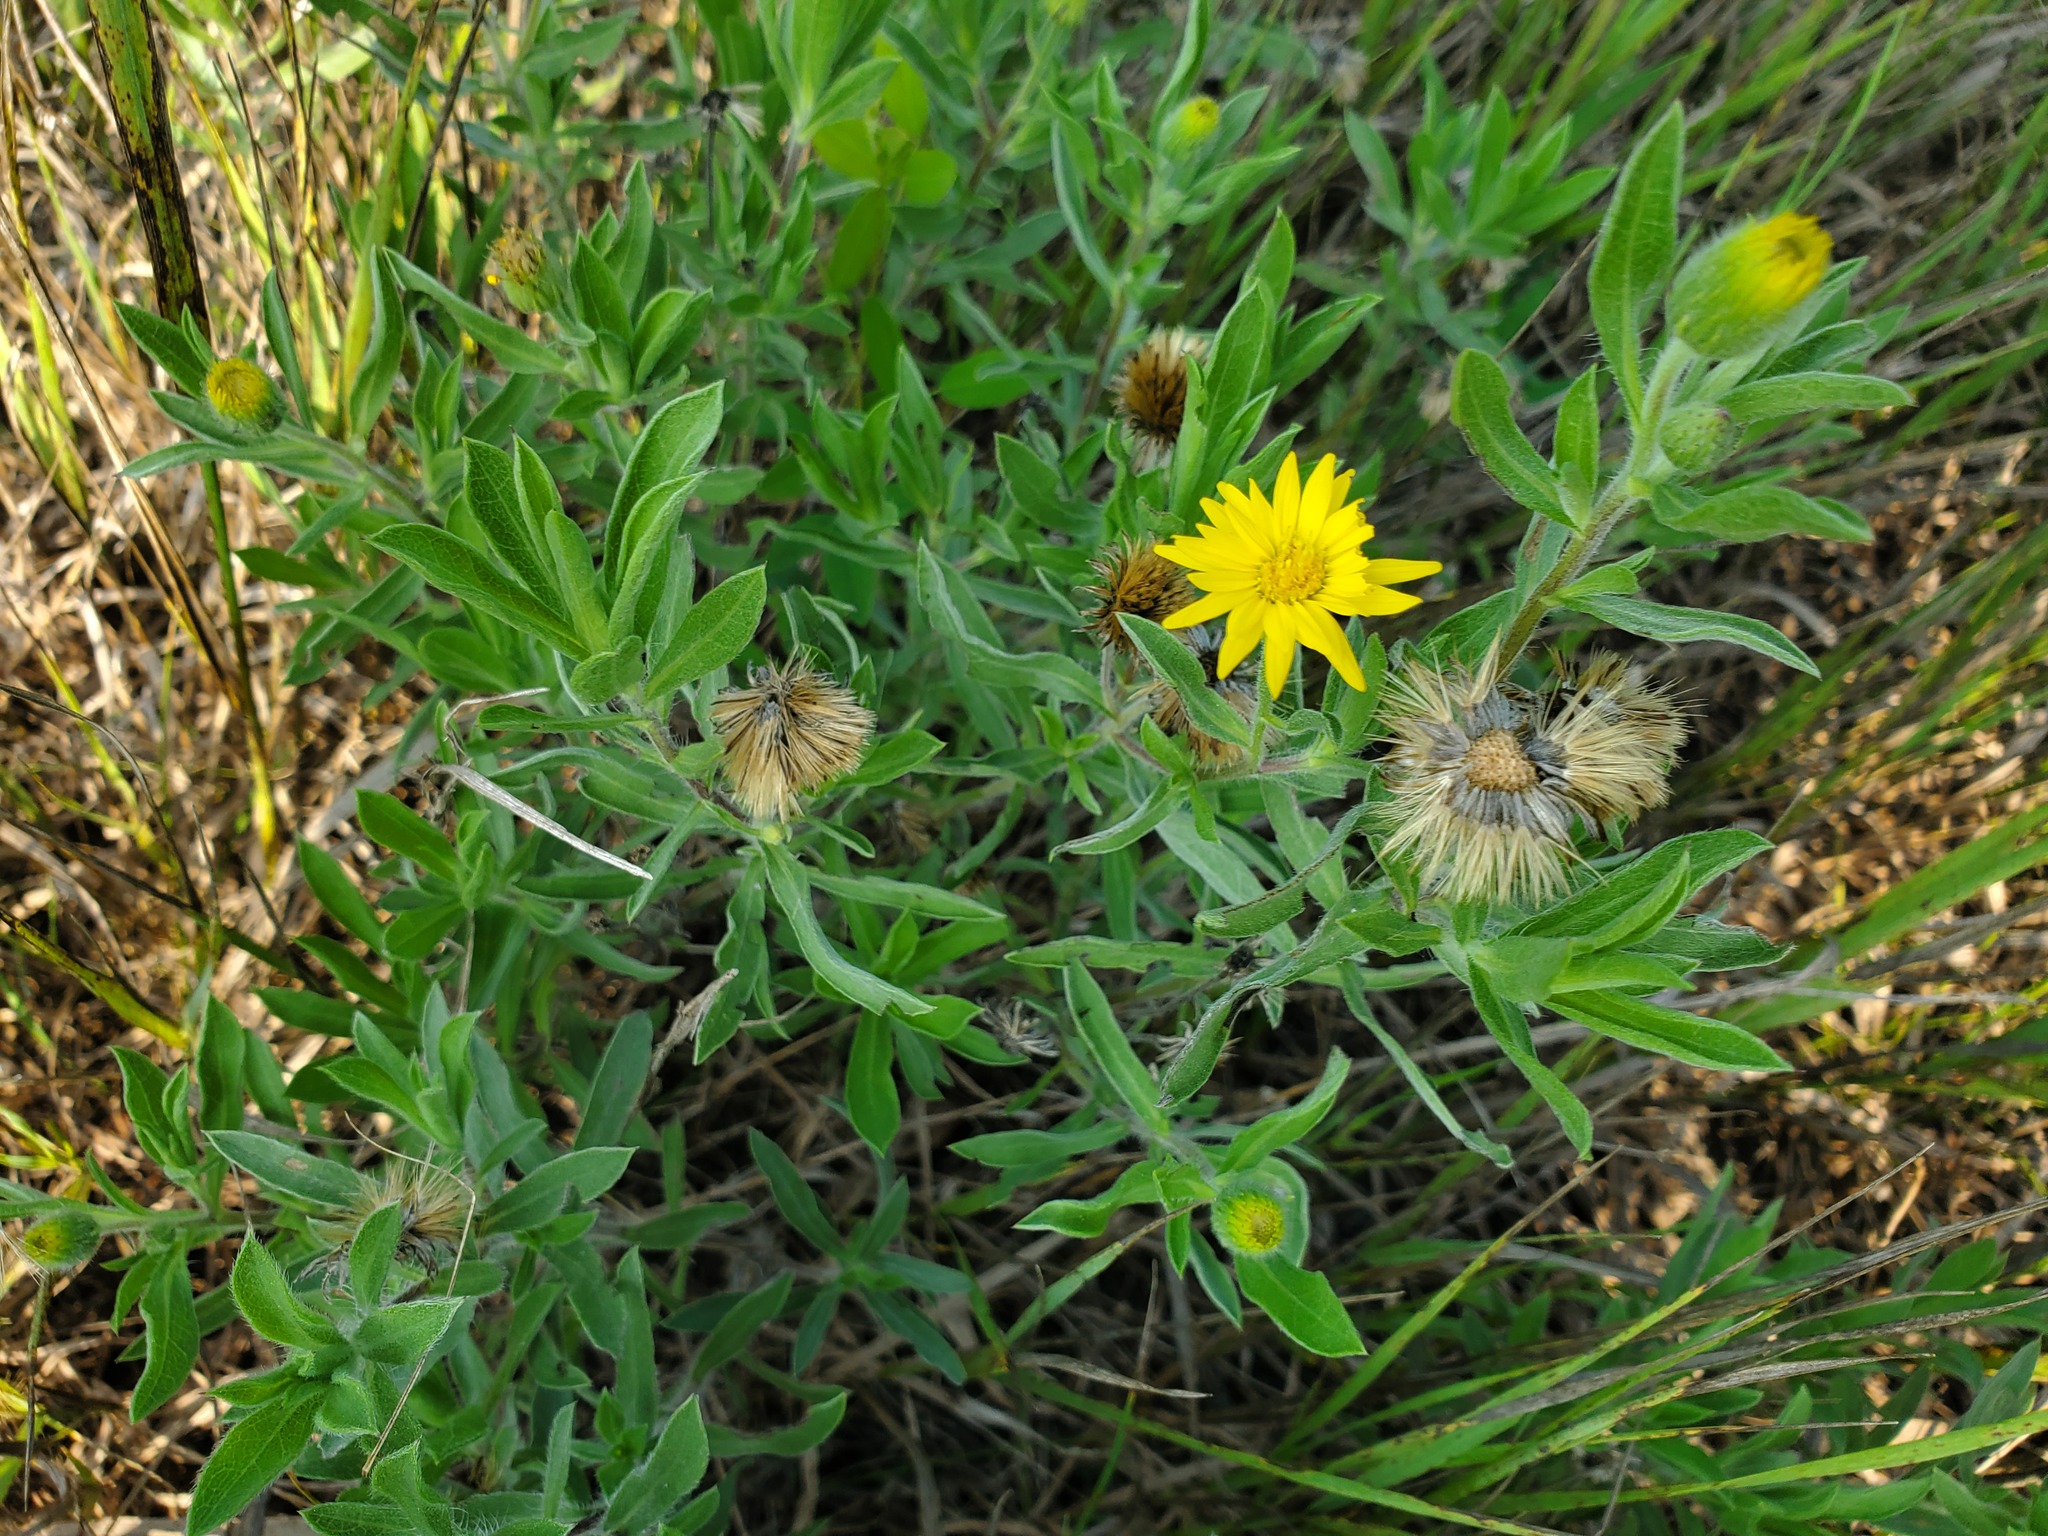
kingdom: Plantae
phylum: Tracheophyta
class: Magnoliopsida
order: Asterales
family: Asteraceae
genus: Heterotheca
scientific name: Heterotheca camporum
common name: Prairie golden-aster
